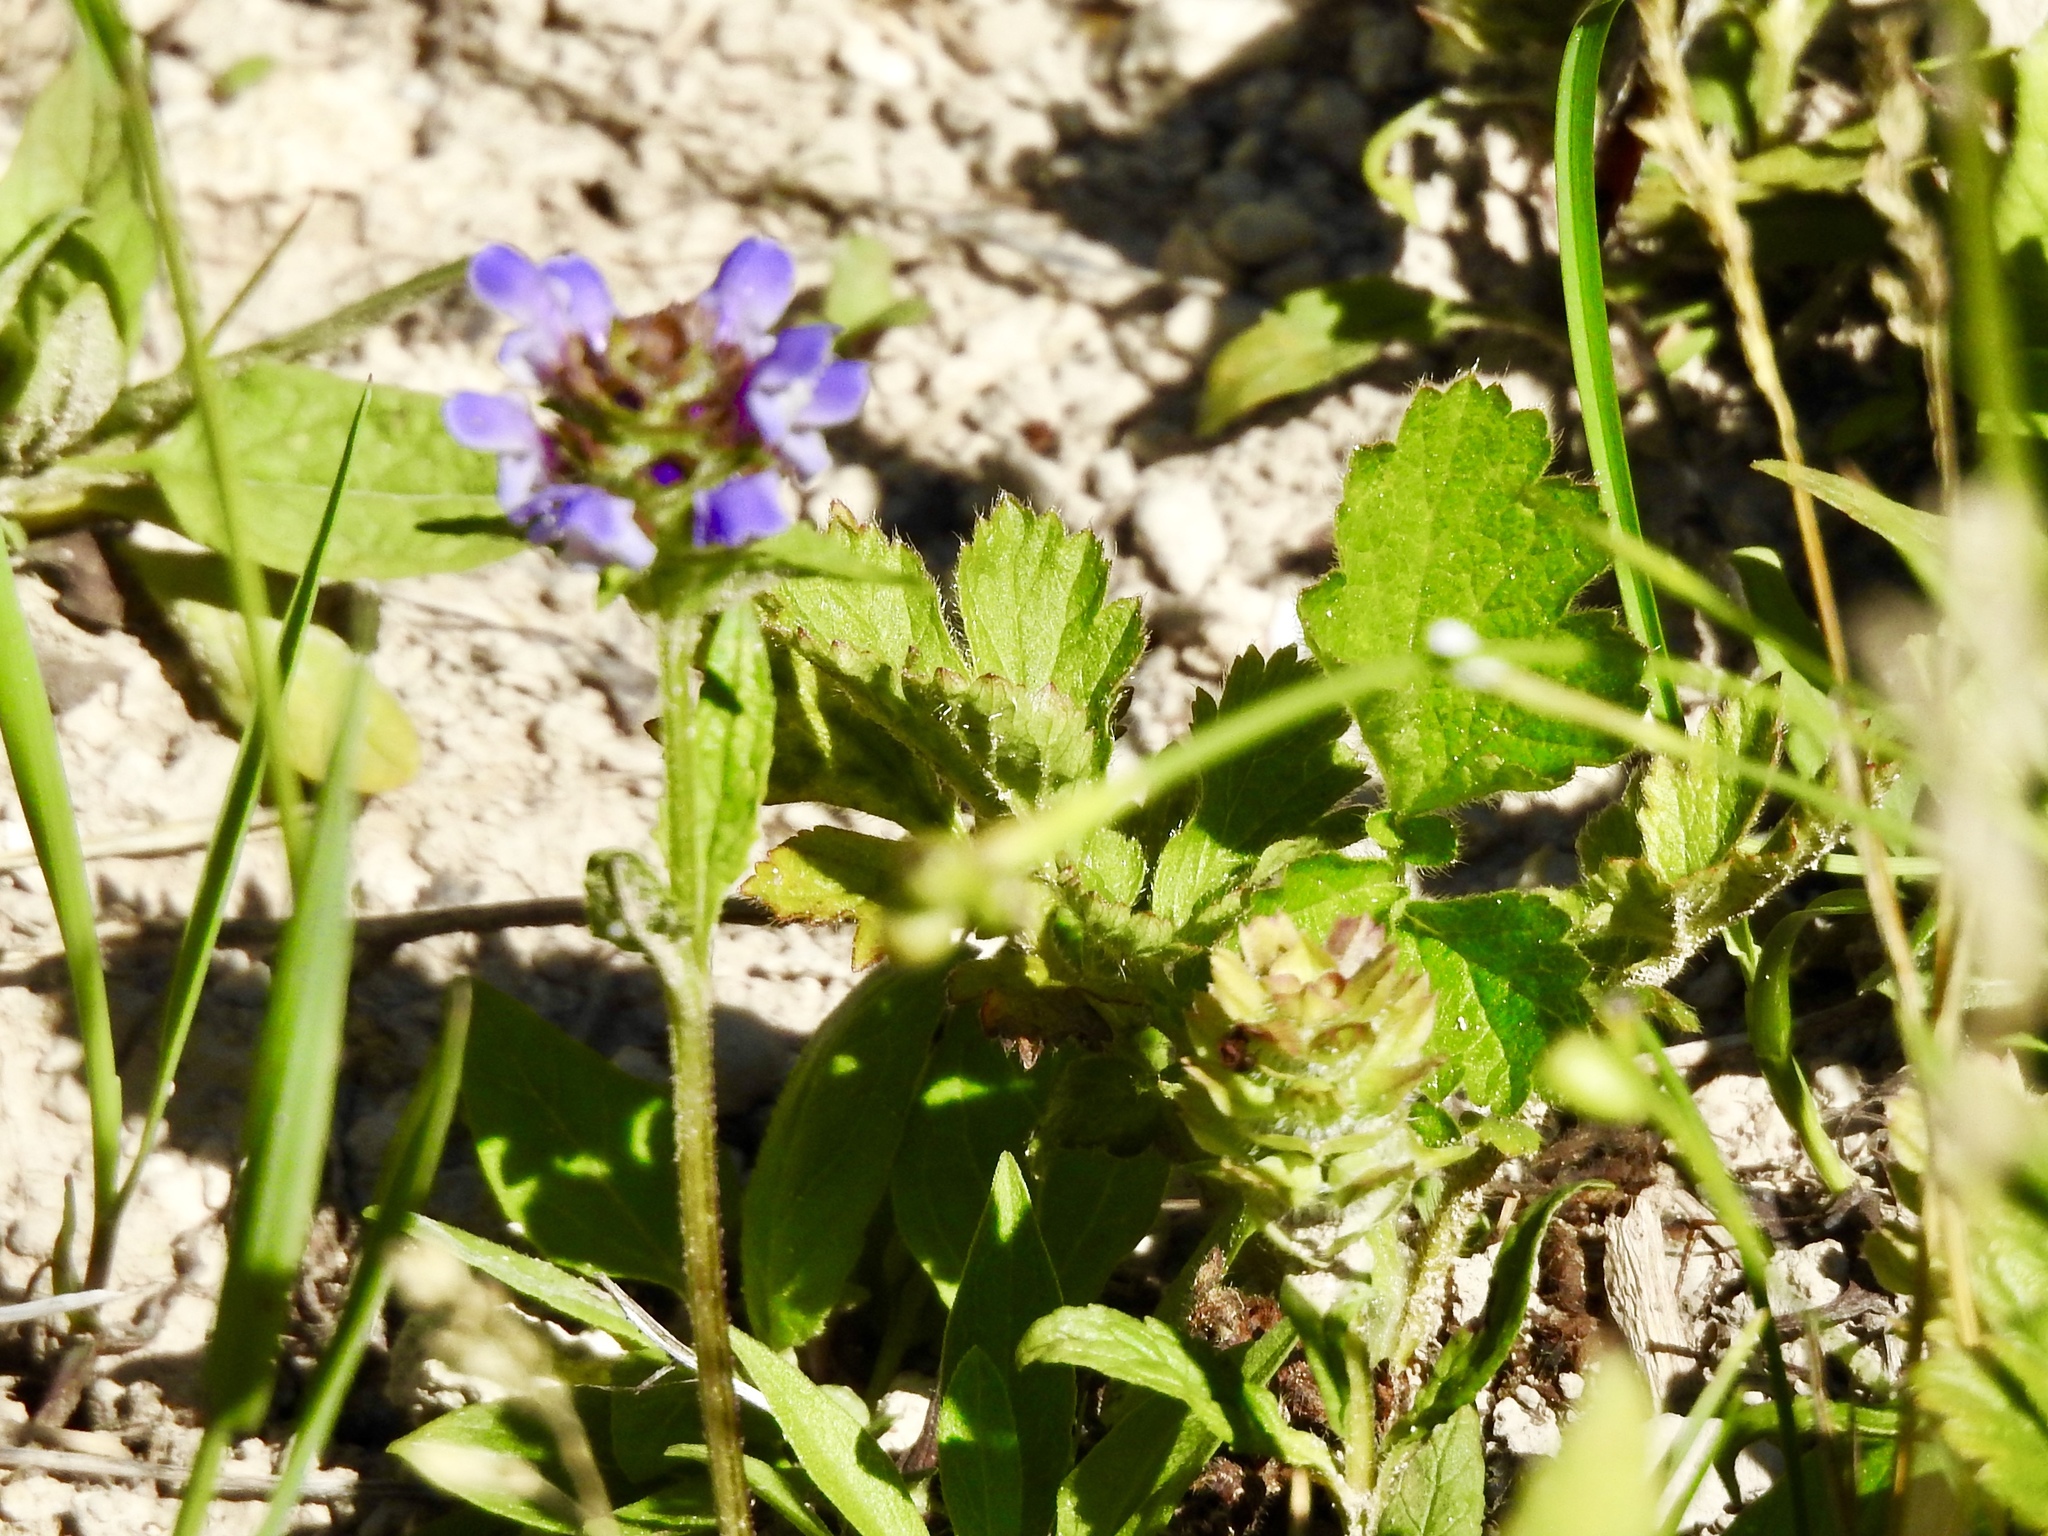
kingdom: Plantae
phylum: Tracheophyta
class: Magnoliopsida
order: Lamiales
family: Lamiaceae
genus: Prunella
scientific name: Prunella vulgaris
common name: Heal-all
